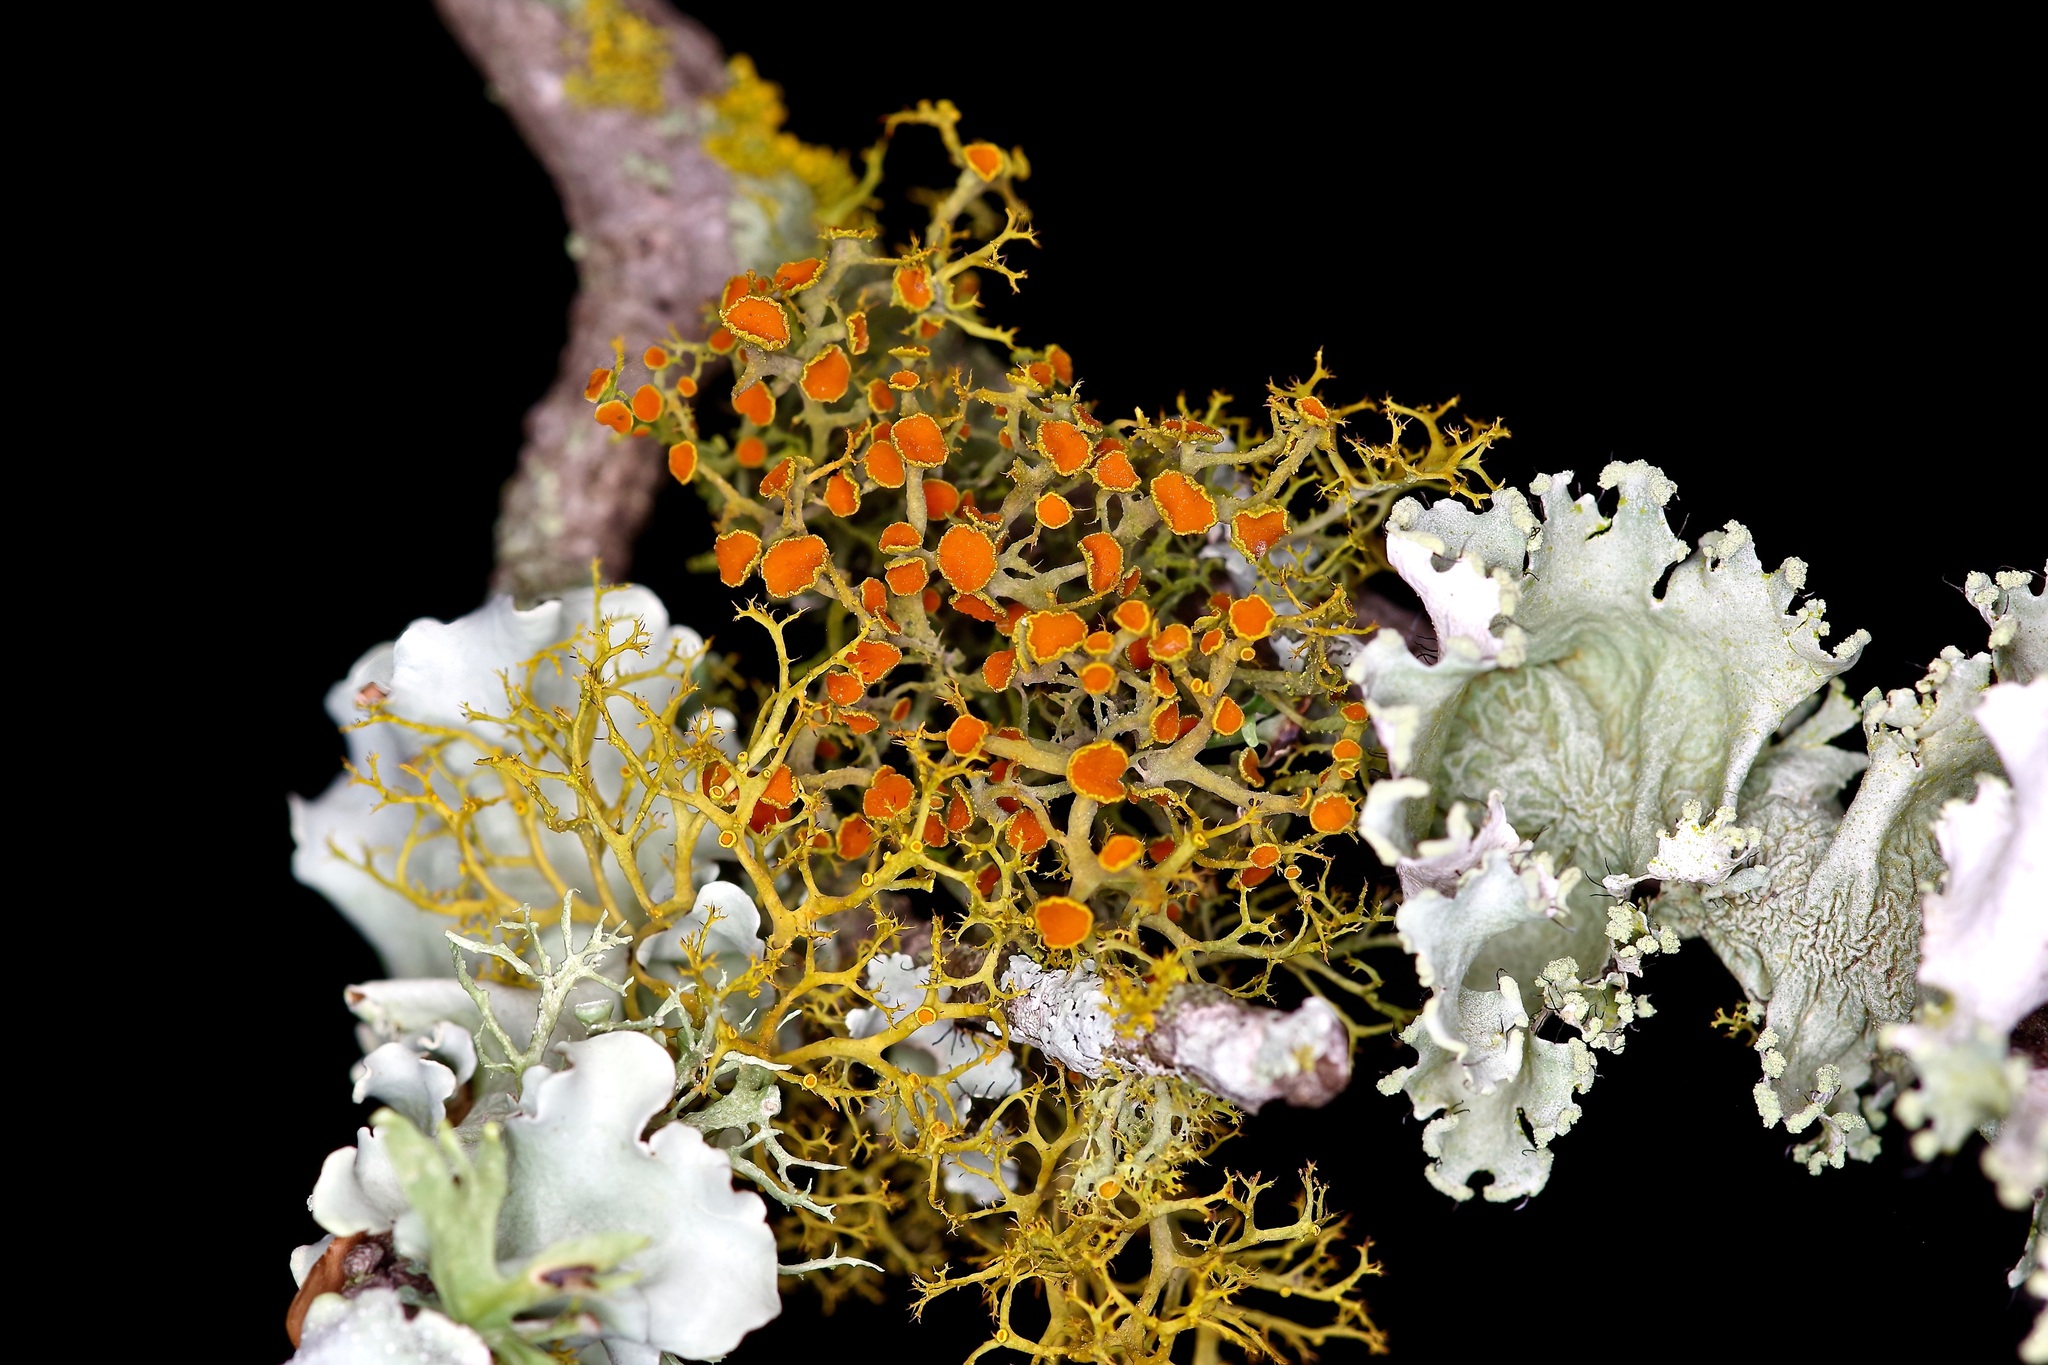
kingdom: Fungi
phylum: Ascomycota
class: Lecanoromycetes
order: Teloschistales
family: Teloschistaceae
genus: Teloschistes
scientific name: Teloschistes exilis
